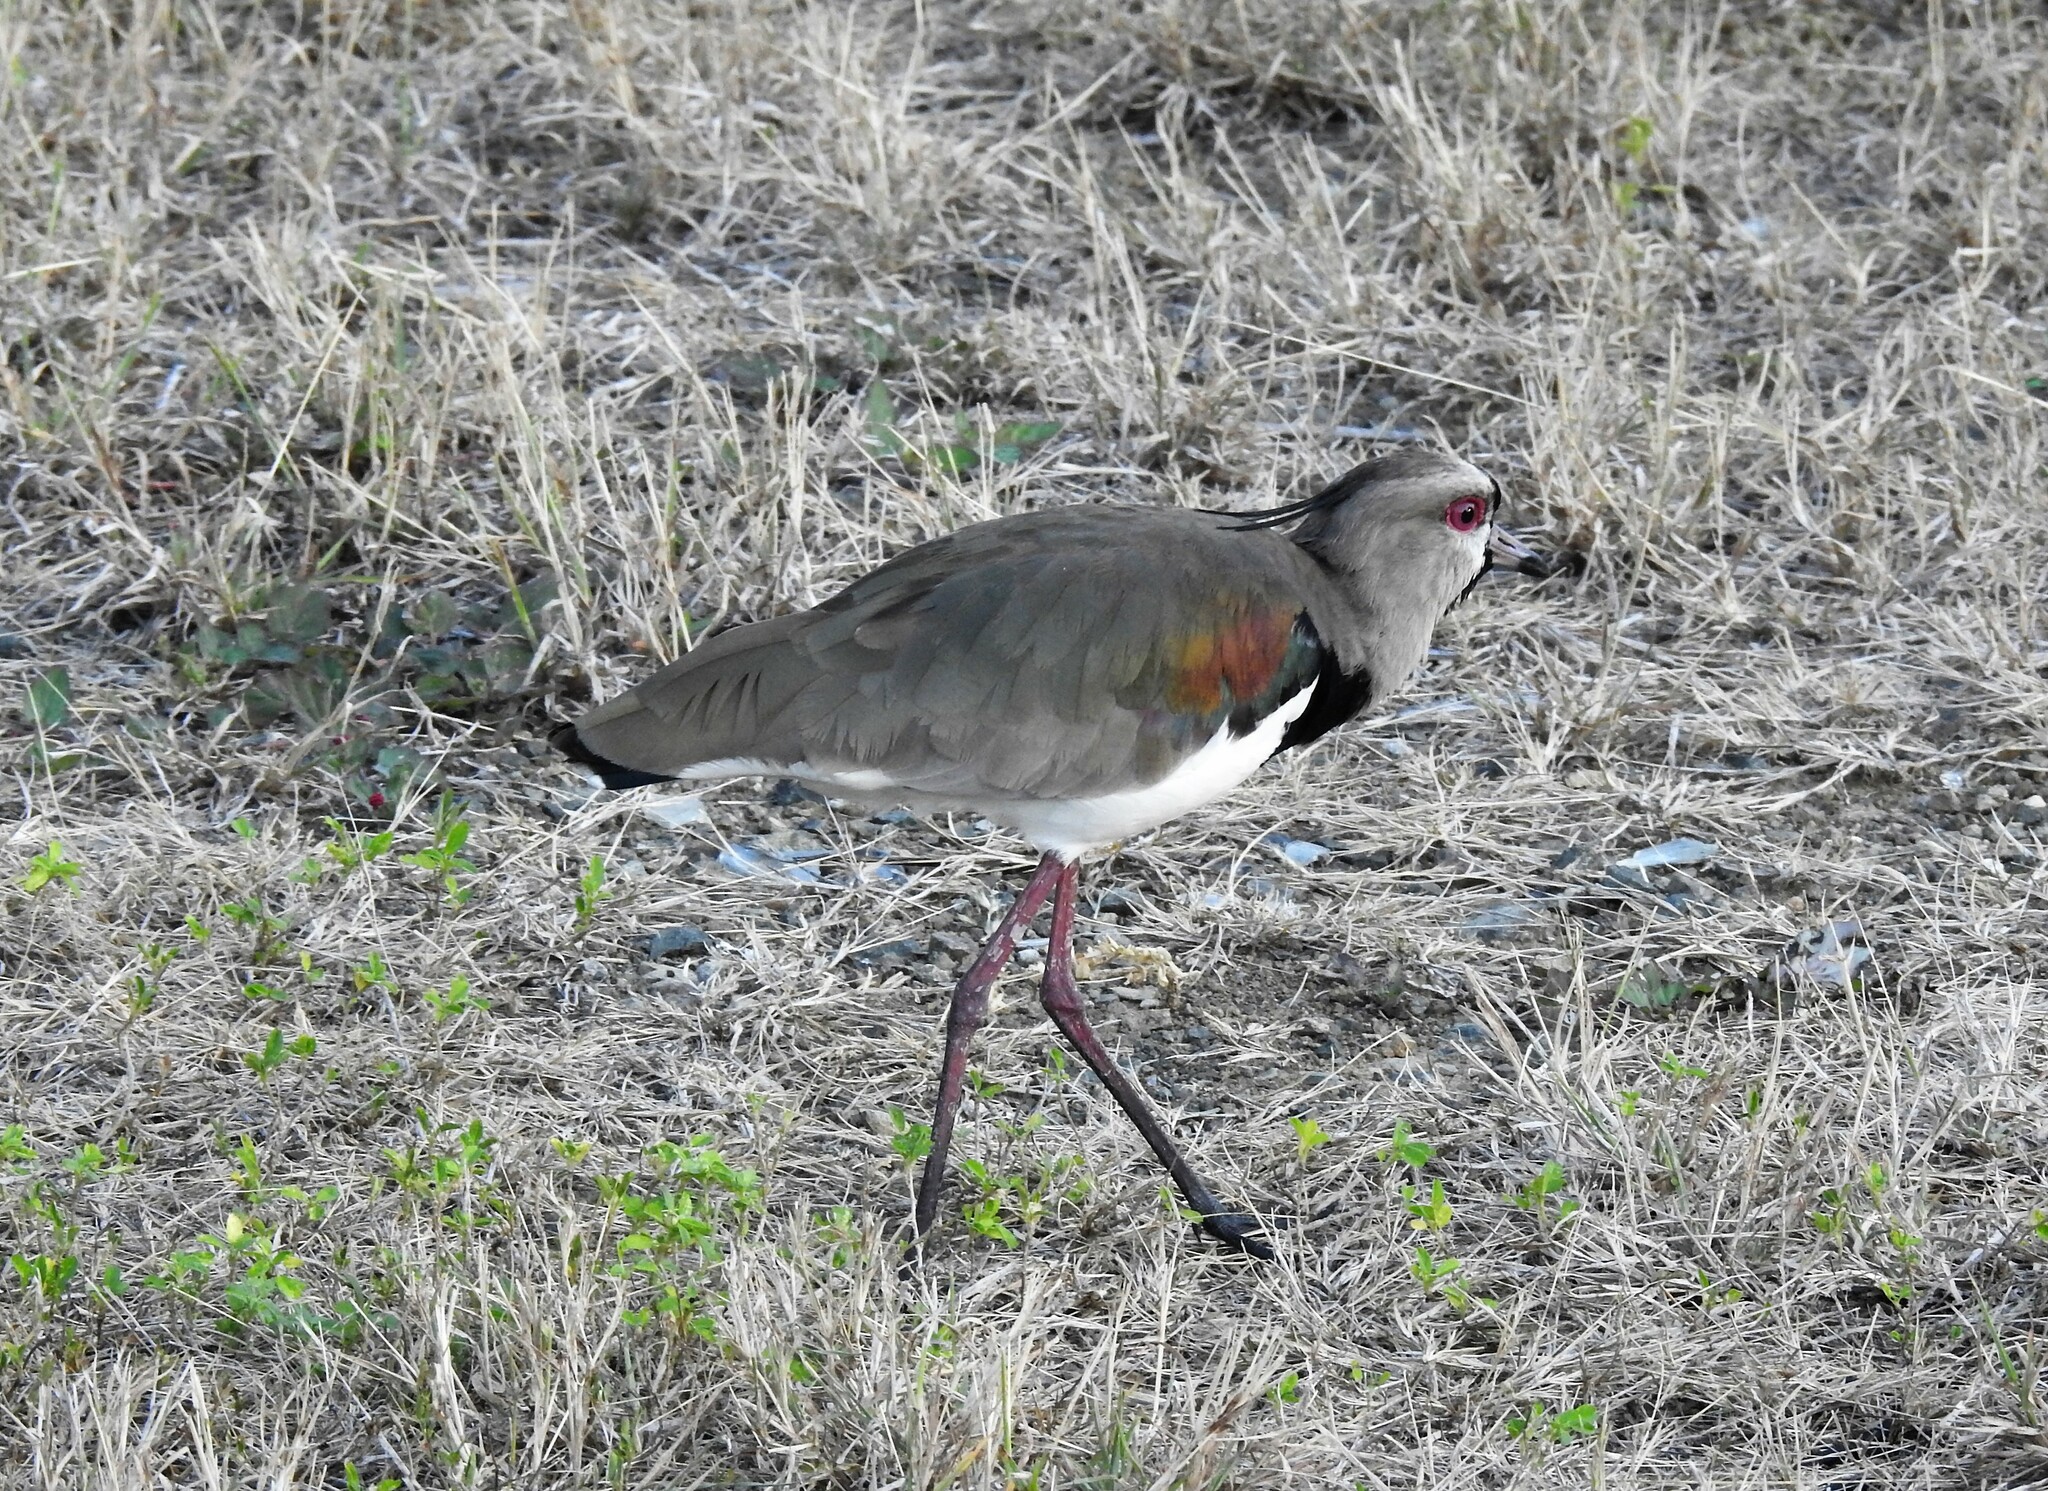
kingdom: Animalia
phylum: Chordata
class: Aves
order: Charadriiformes
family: Charadriidae
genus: Vanellus
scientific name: Vanellus chilensis
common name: Southern lapwing
